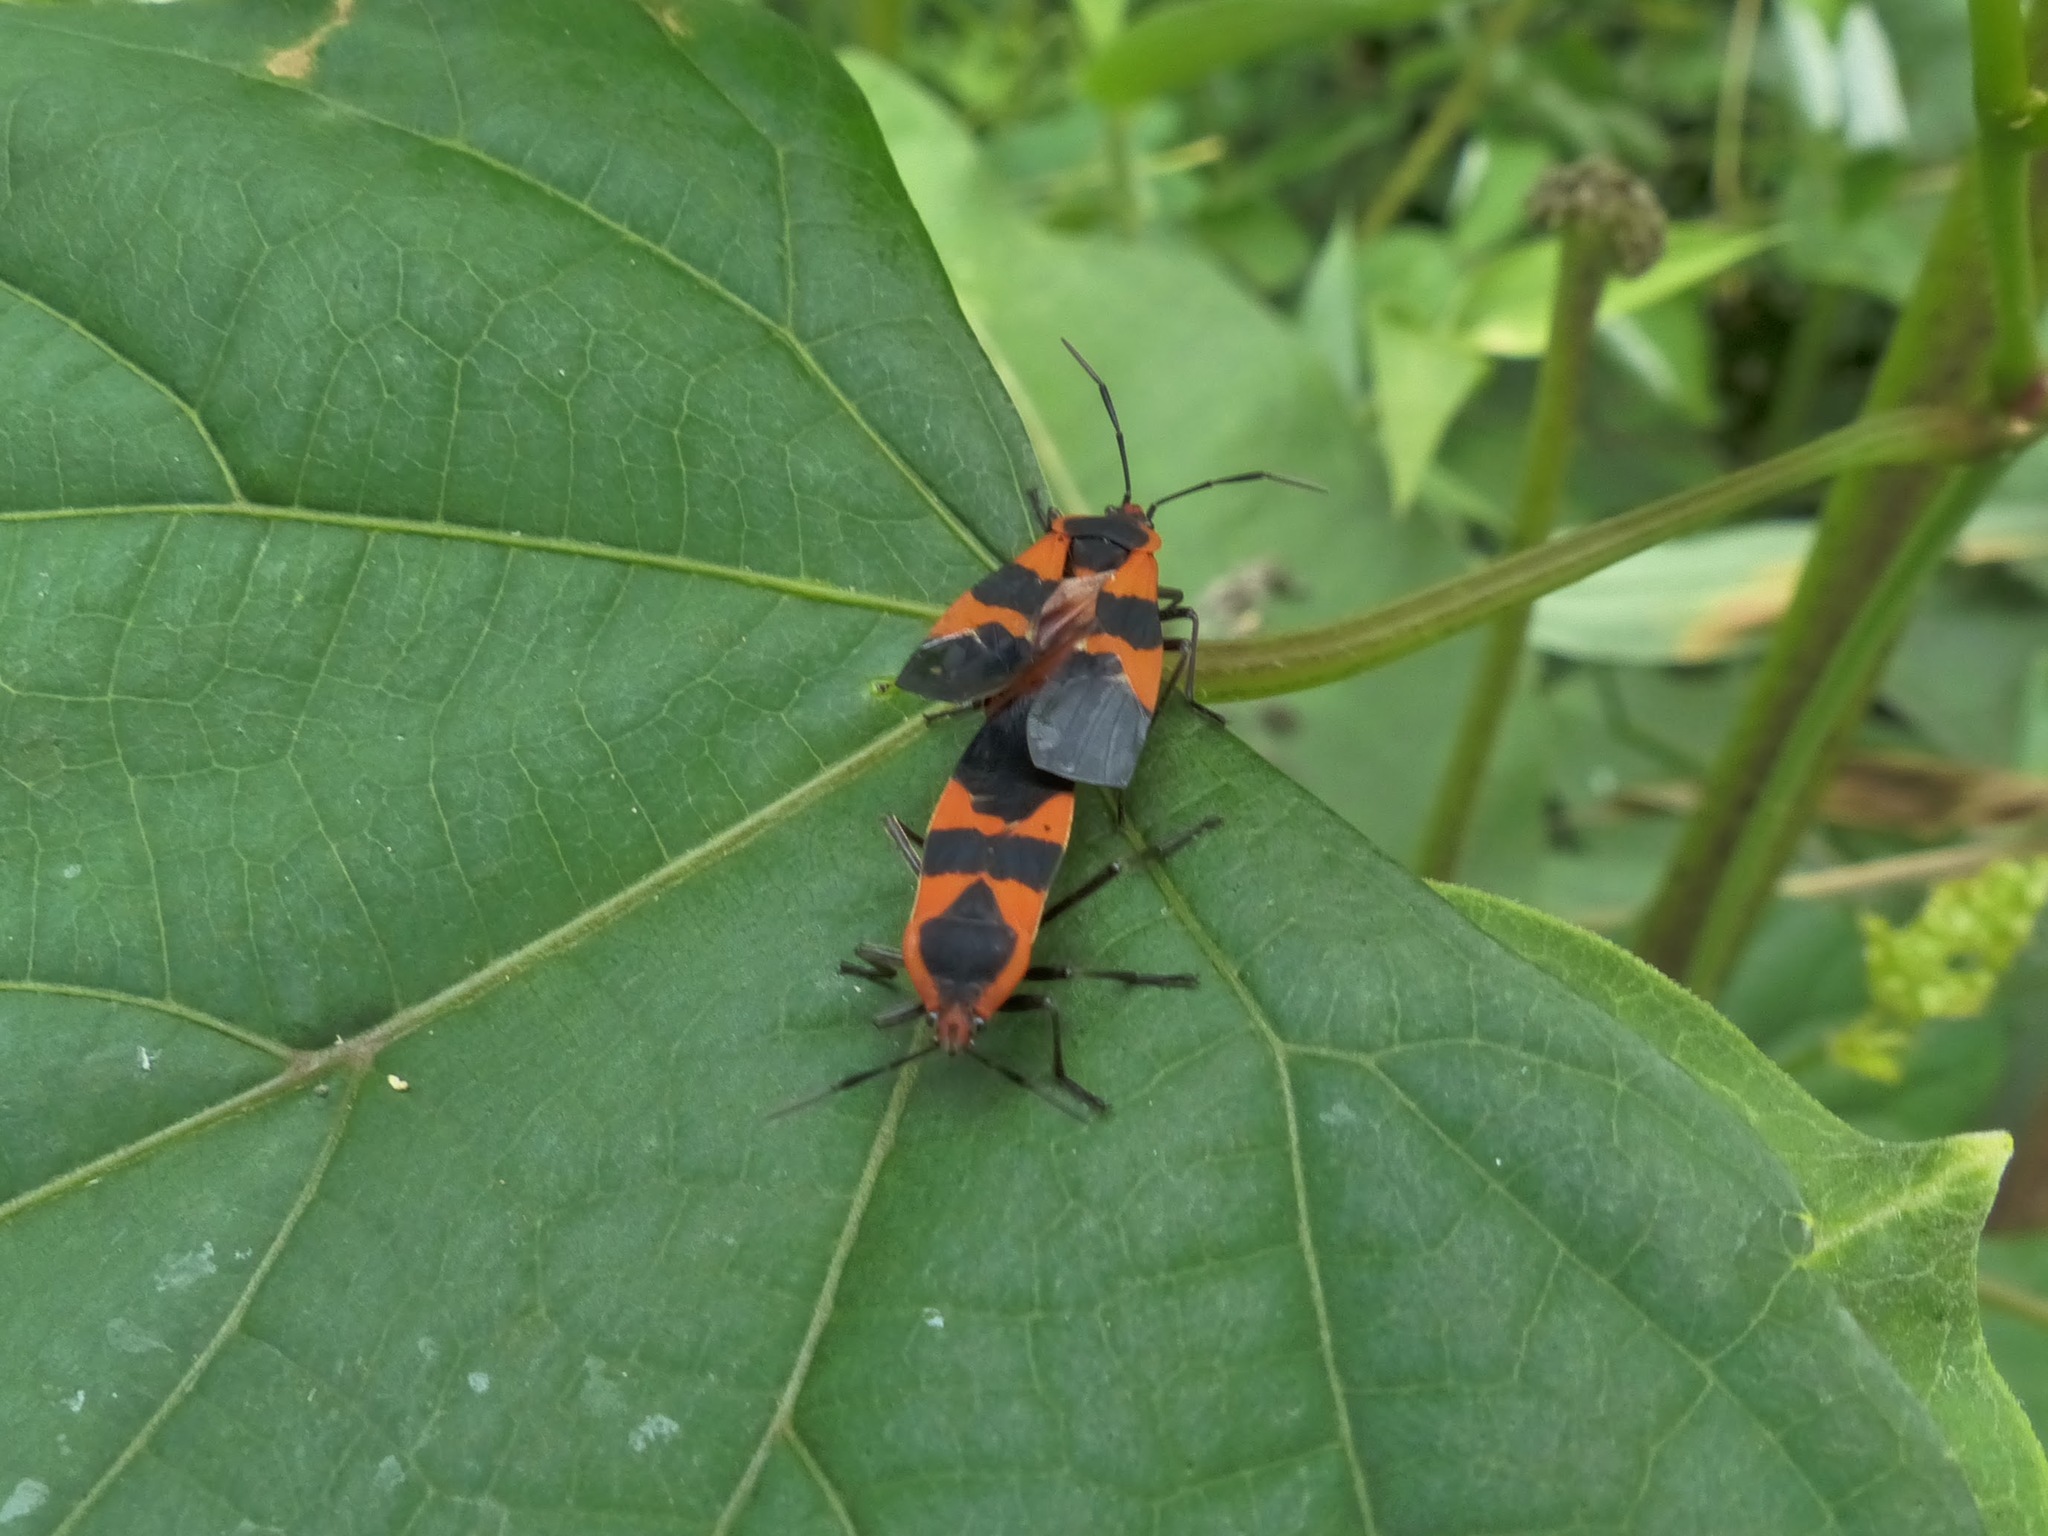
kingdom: Animalia
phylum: Arthropoda
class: Insecta
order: Hemiptera
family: Lygaeidae
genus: Oncopeltus
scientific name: Oncopeltus fasciatus
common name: Large milkweed bug
